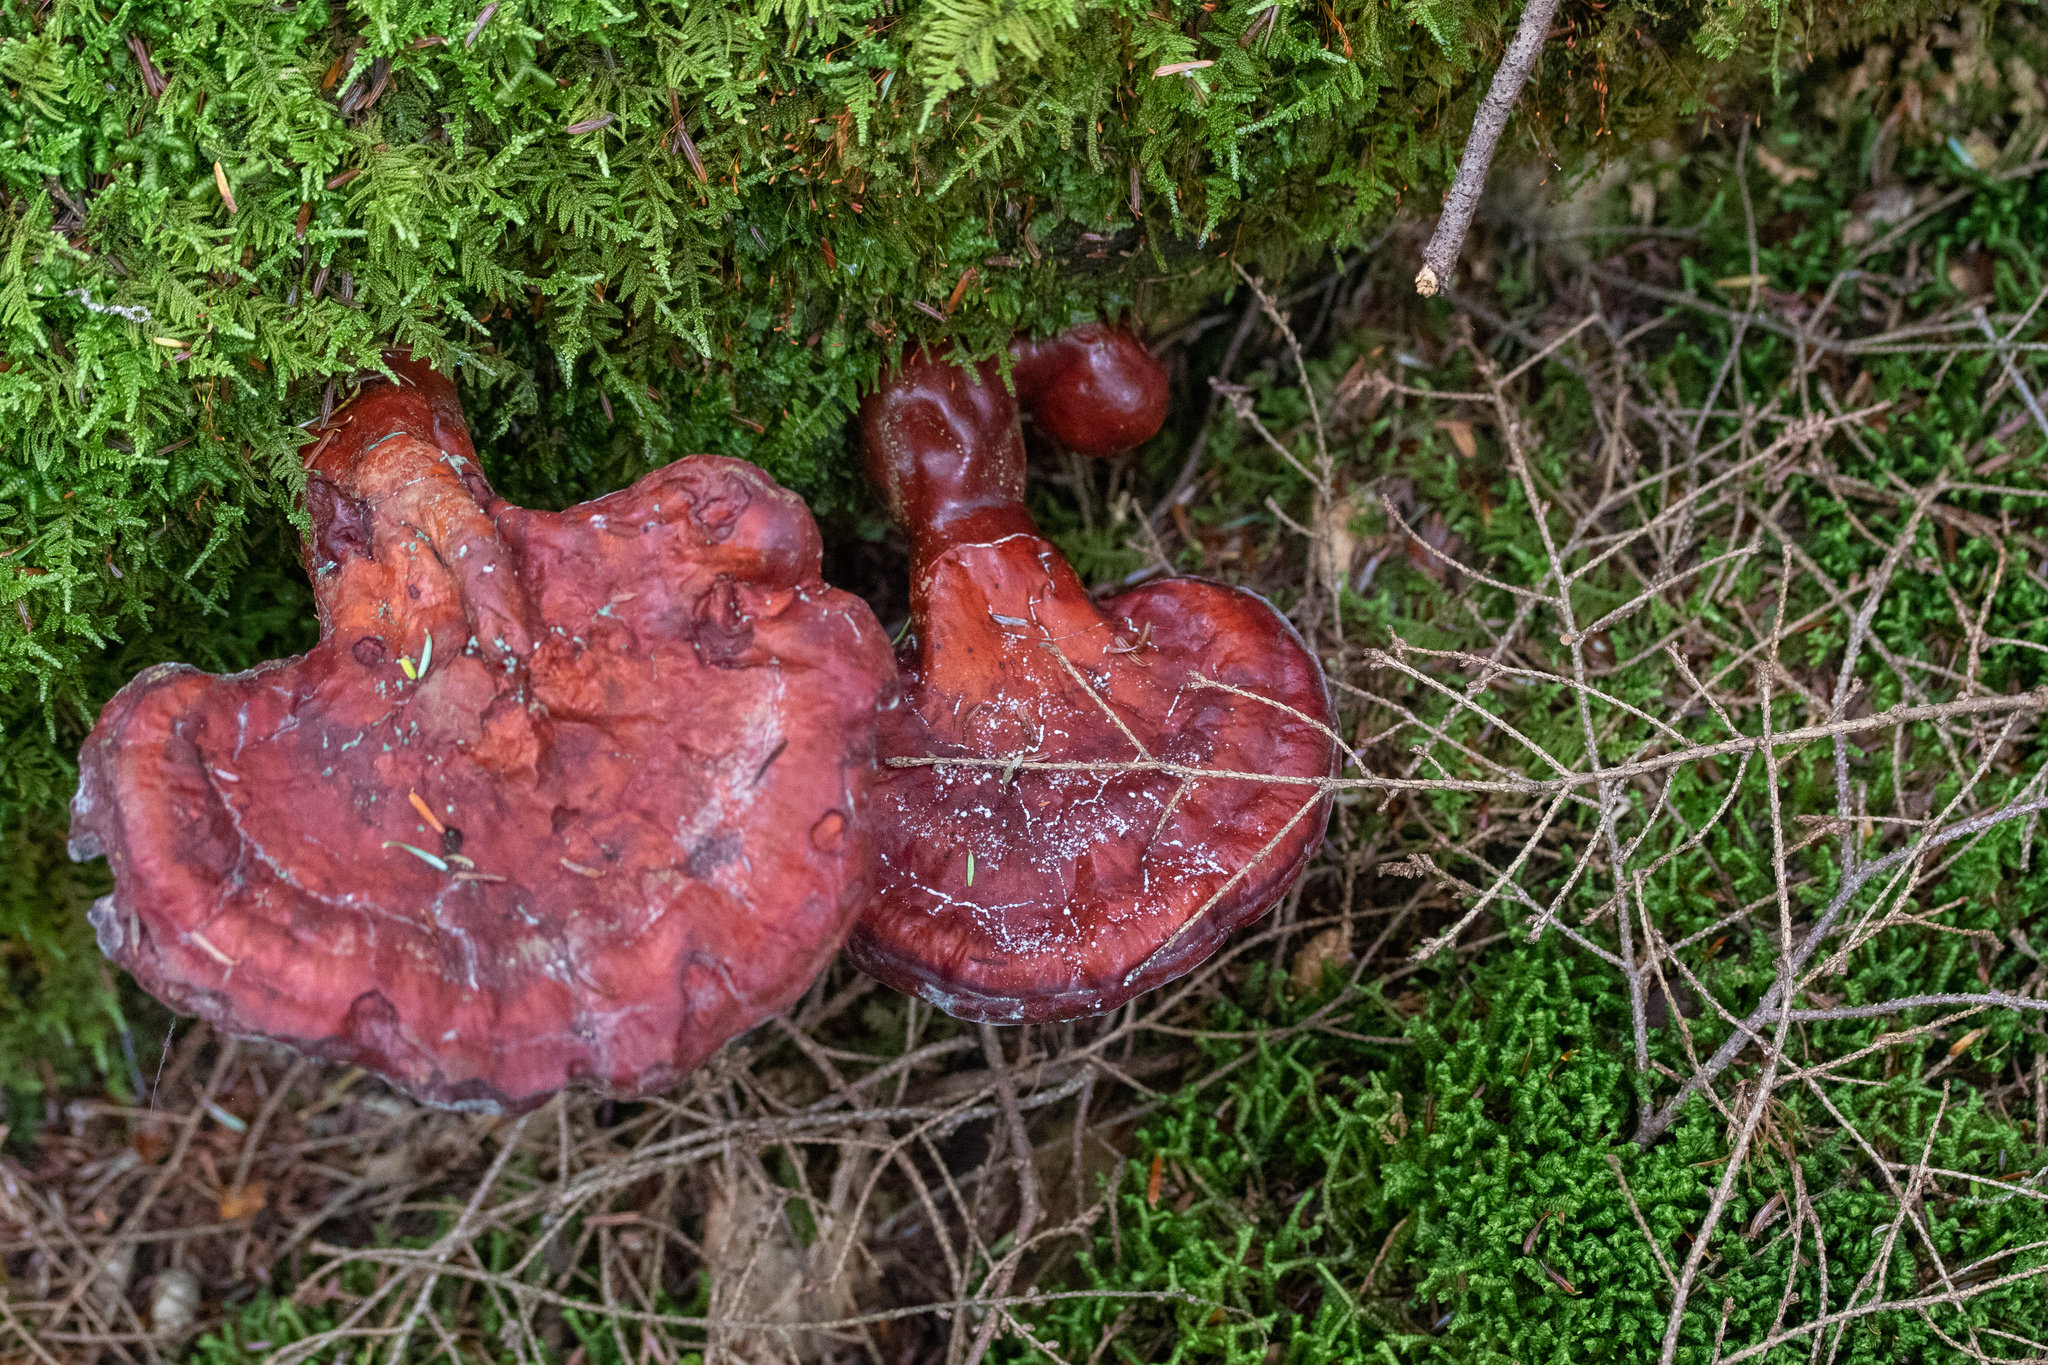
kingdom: Fungi
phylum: Basidiomycota
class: Agaricomycetes
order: Polyporales
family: Polyporaceae
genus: Ganoderma
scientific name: Ganoderma tsugae
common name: Hemlock varnish shelf
